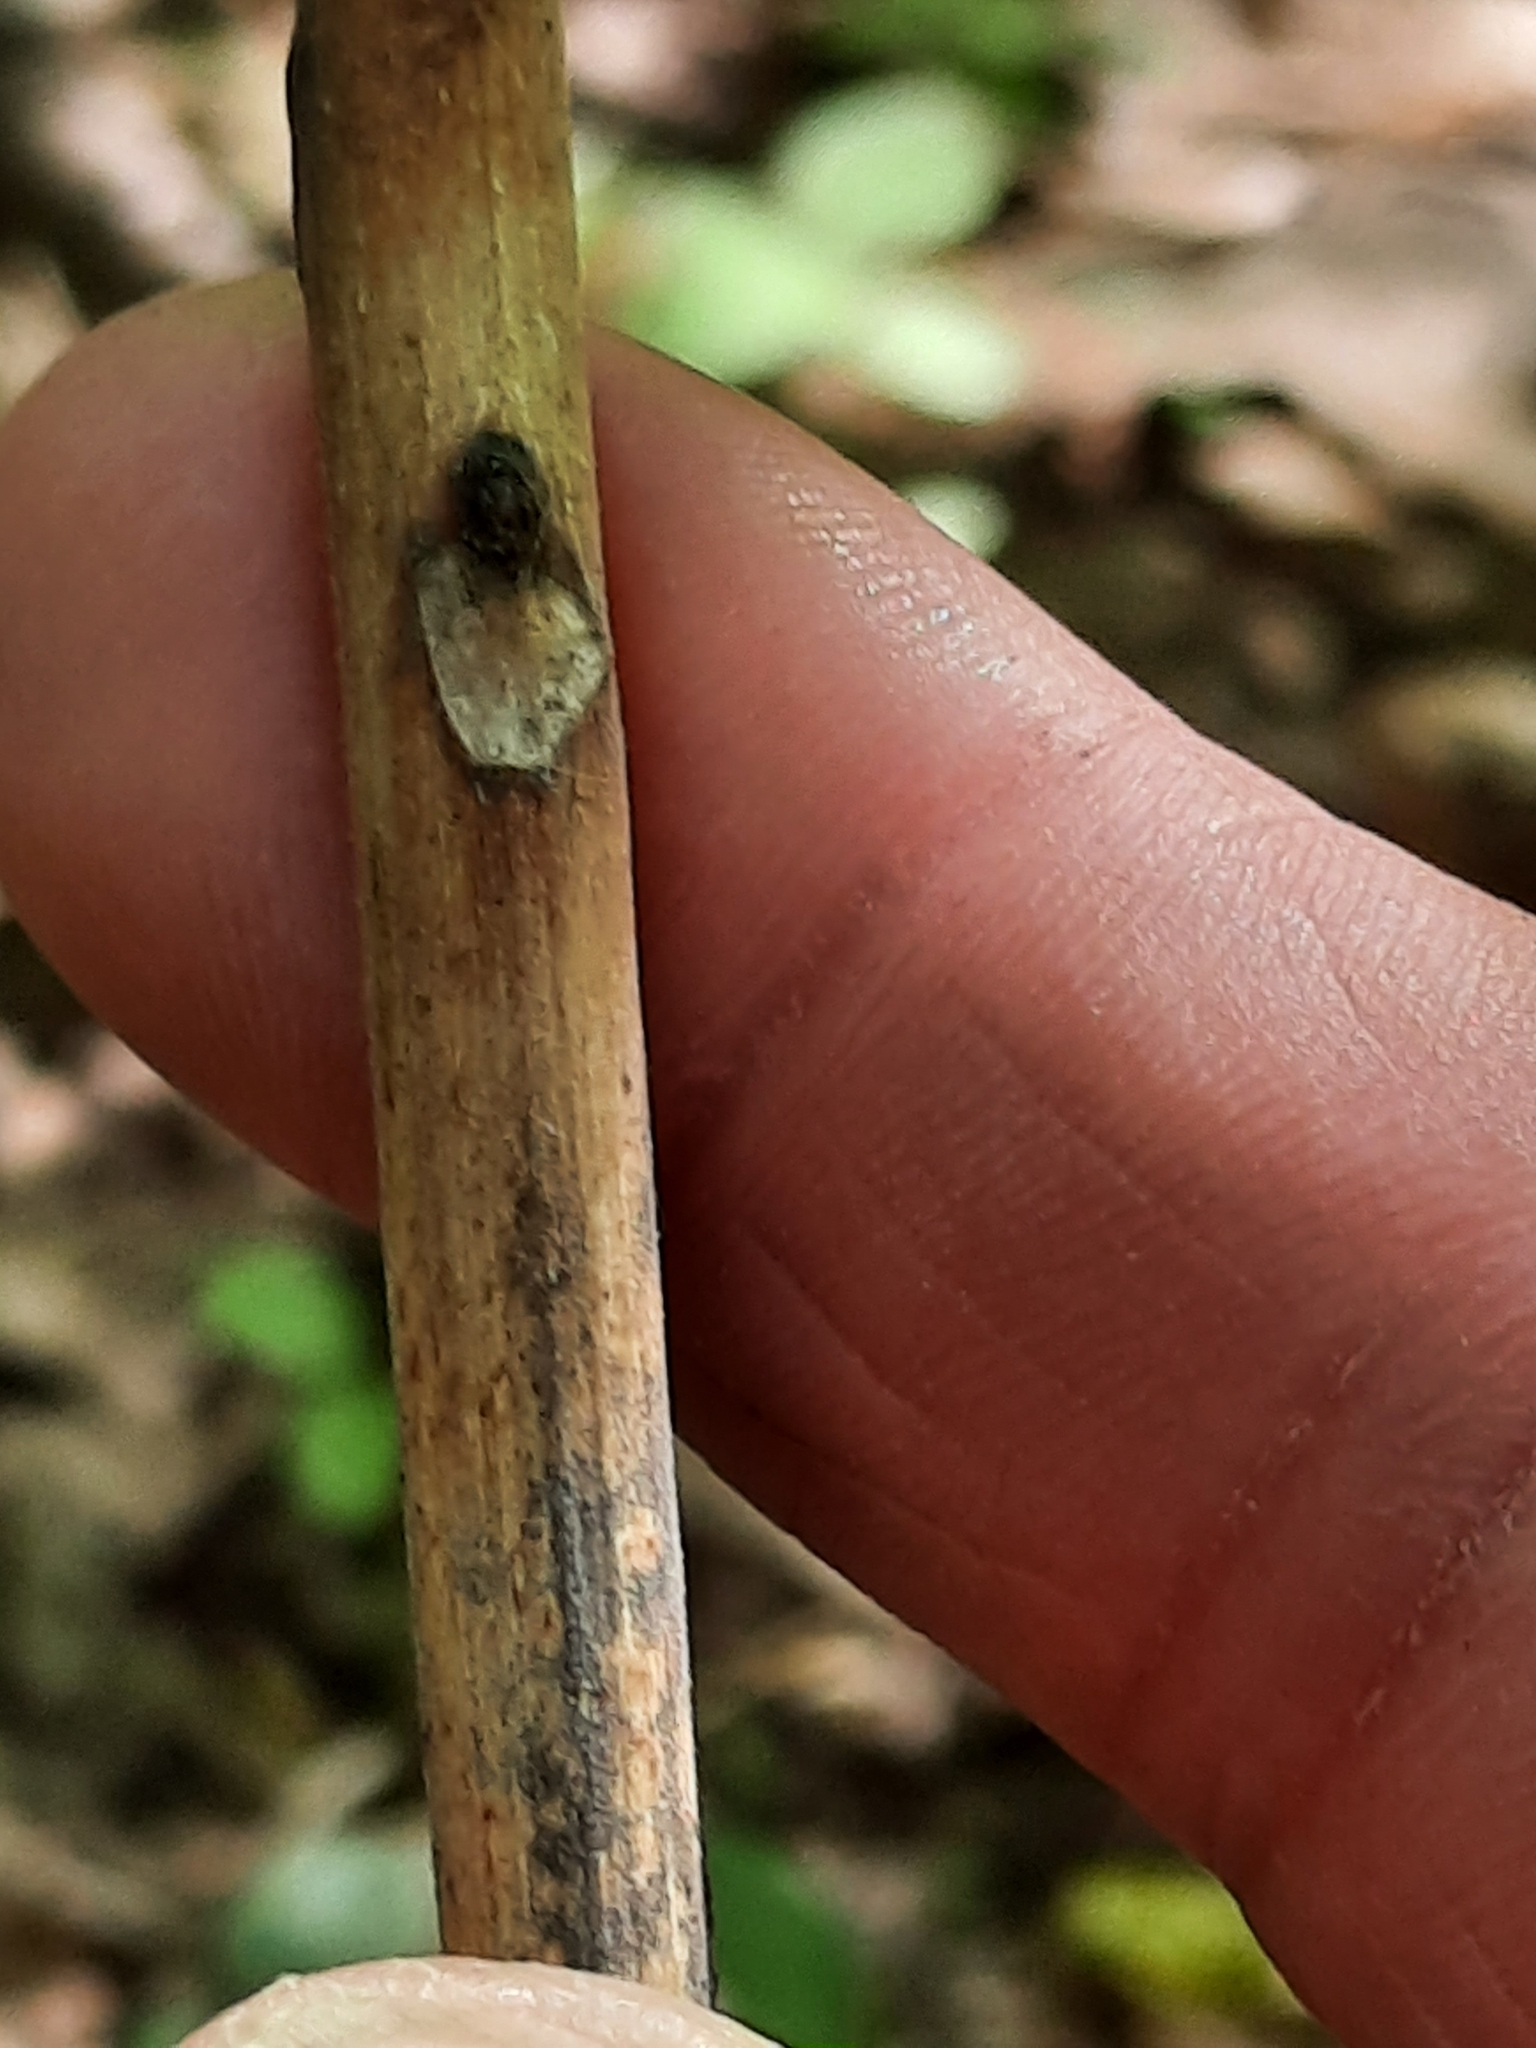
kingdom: Plantae
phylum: Tracheophyta
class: Magnoliopsida
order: Sapindales
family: Simaroubaceae
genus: Ailanthus
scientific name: Ailanthus altissima
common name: Tree-of-heaven
